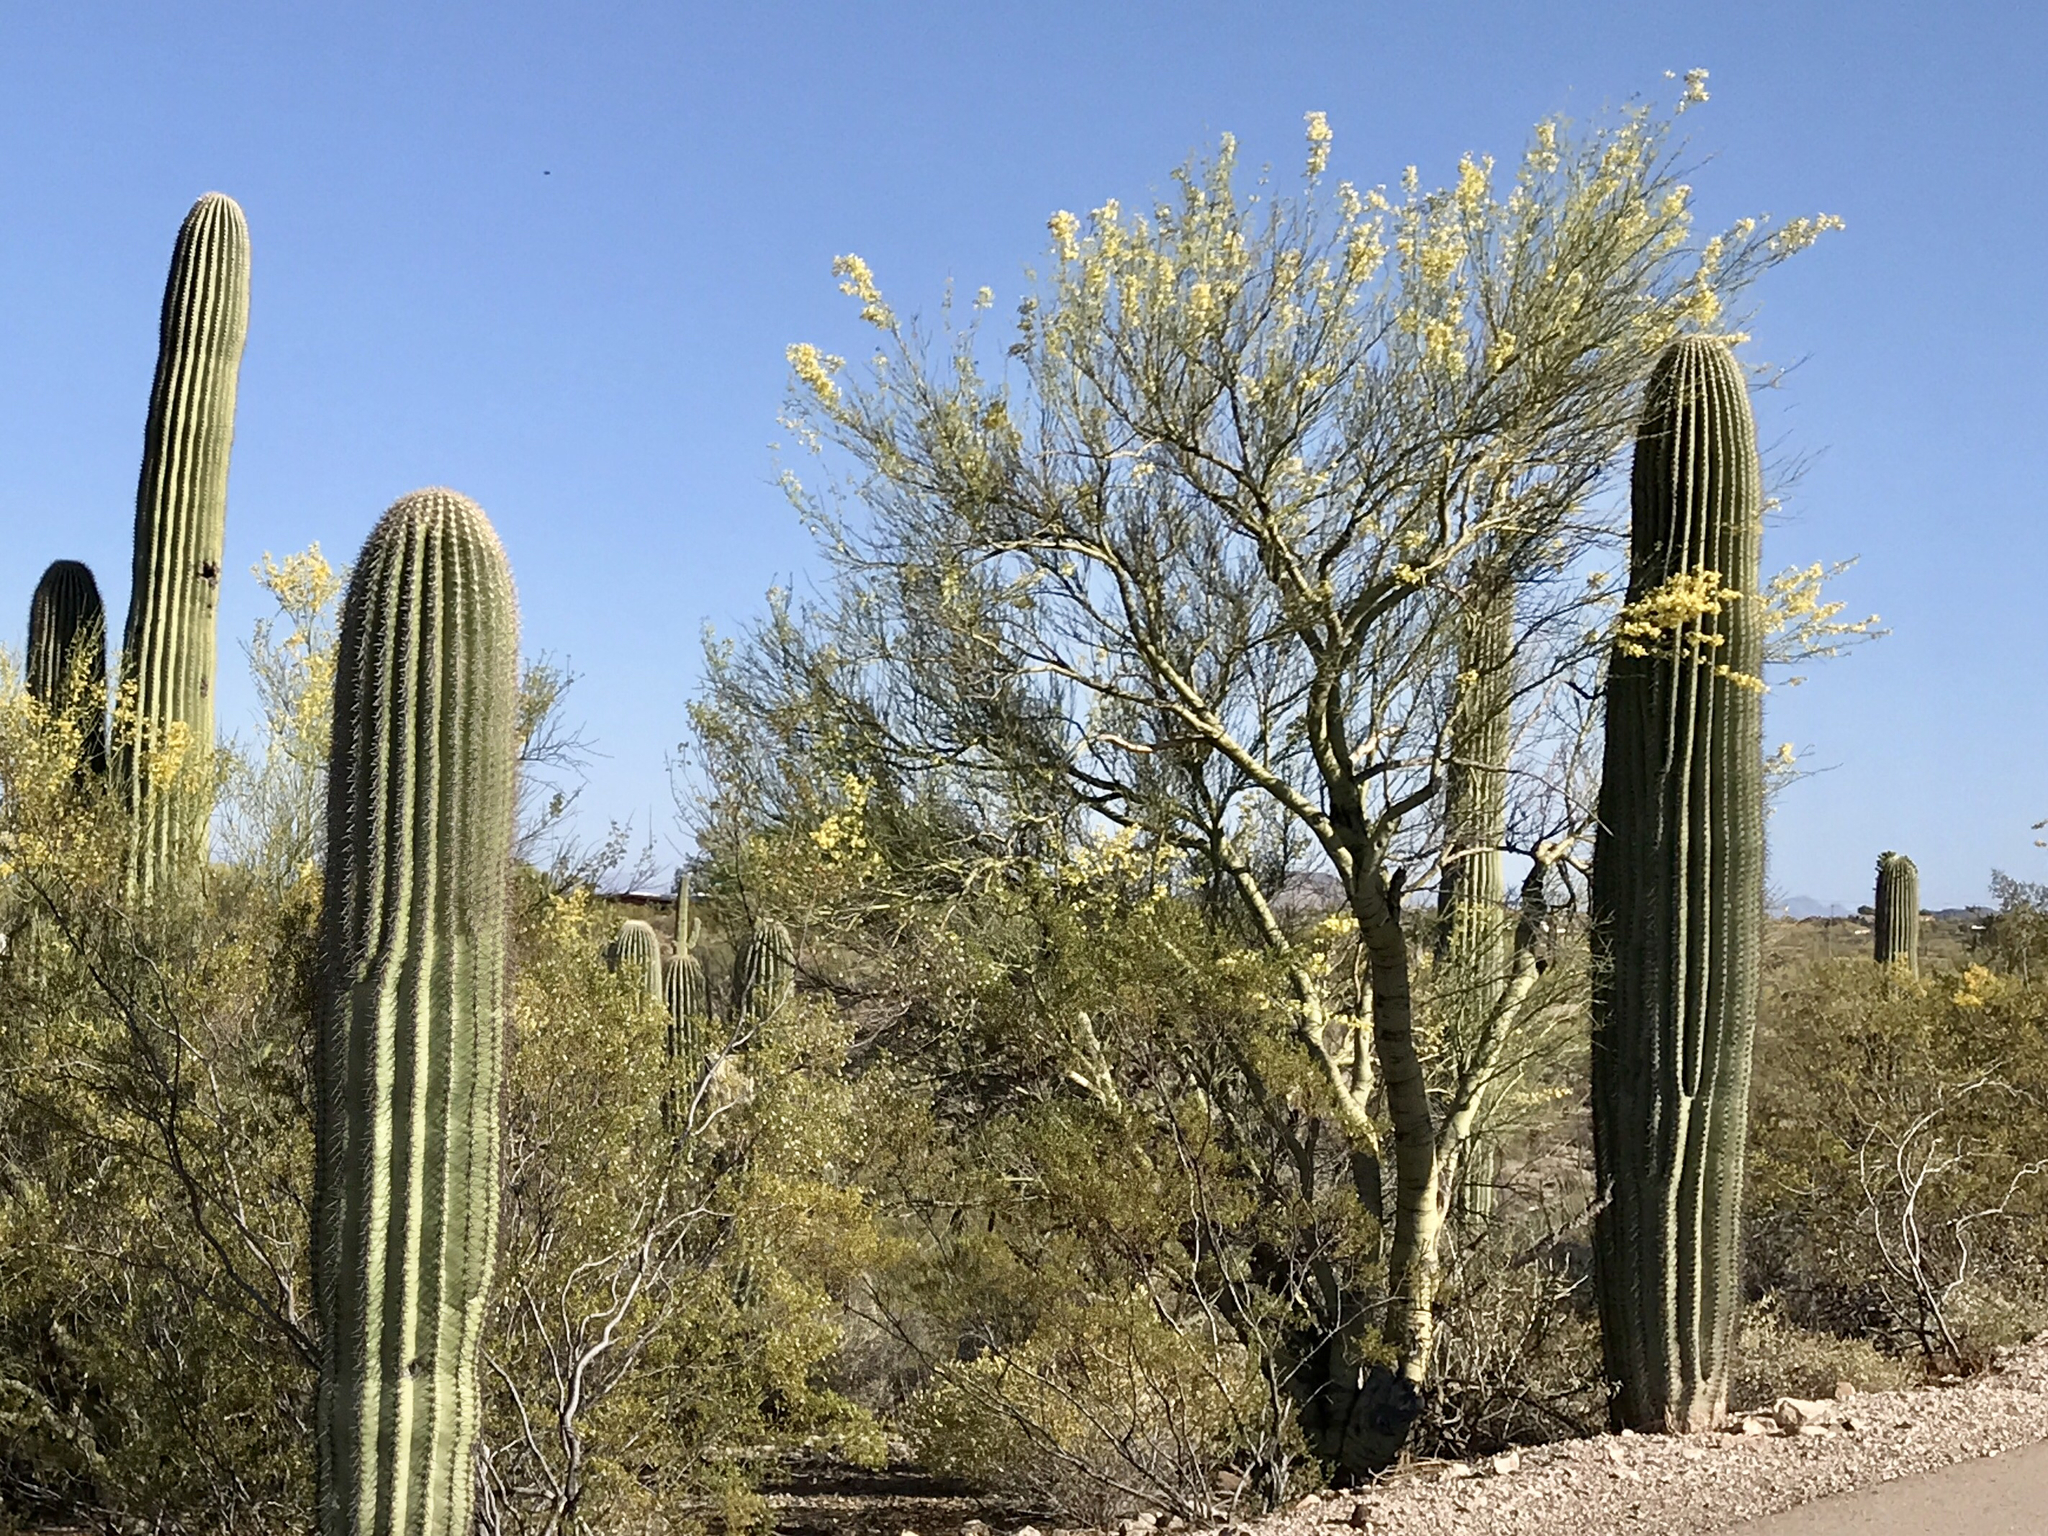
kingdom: Plantae
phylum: Tracheophyta
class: Magnoliopsida
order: Fabales
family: Fabaceae
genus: Parkinsonia
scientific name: Parkinsonia microphylla
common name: Yellow paloverde
